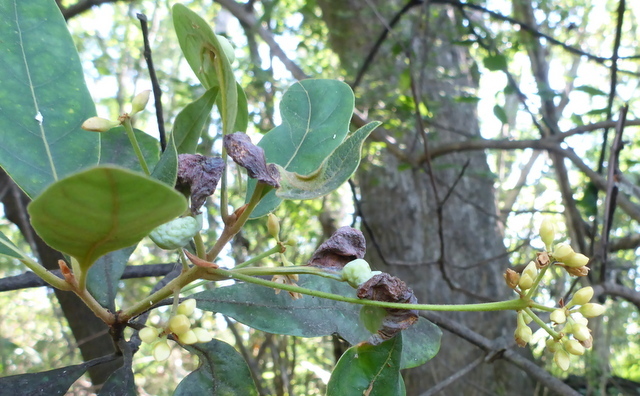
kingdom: Plantae
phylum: Tracheophyta
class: Magnoliopsida
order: Laurales
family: Lauraceae
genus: Persea
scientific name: Persea palustris
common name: Swampbay
